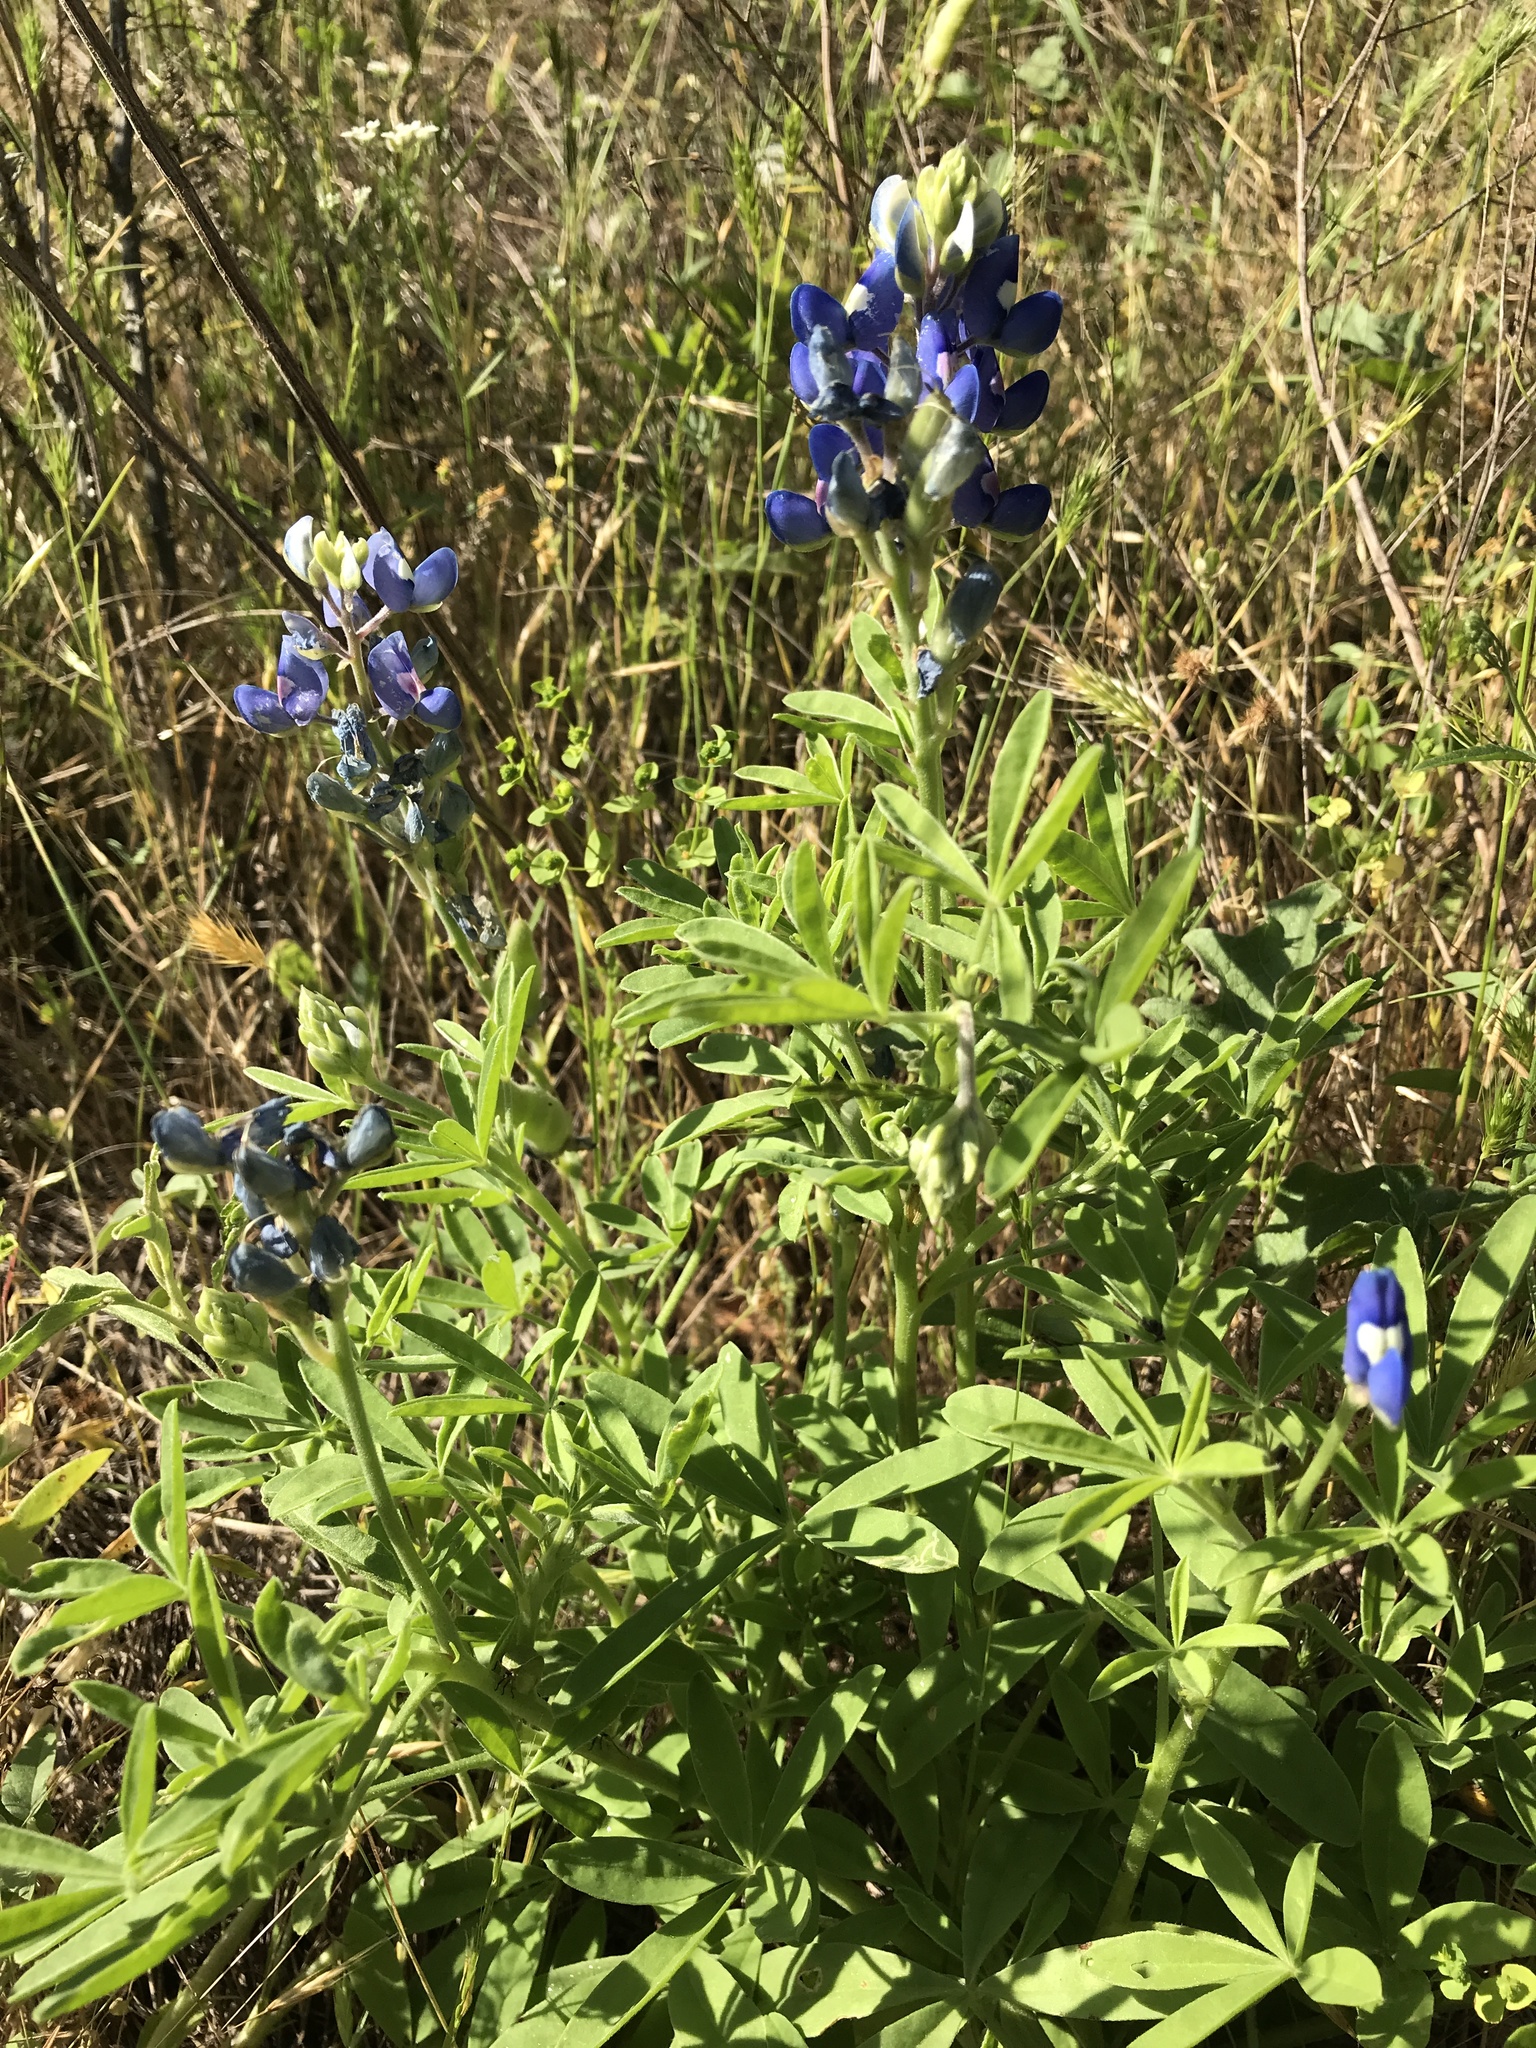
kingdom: Plantae
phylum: Tracheophyta
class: Magnoliopsida
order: Fabales
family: Fabaceae
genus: Lupinus
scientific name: Lupinus texensis
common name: Texas bluebonnet
